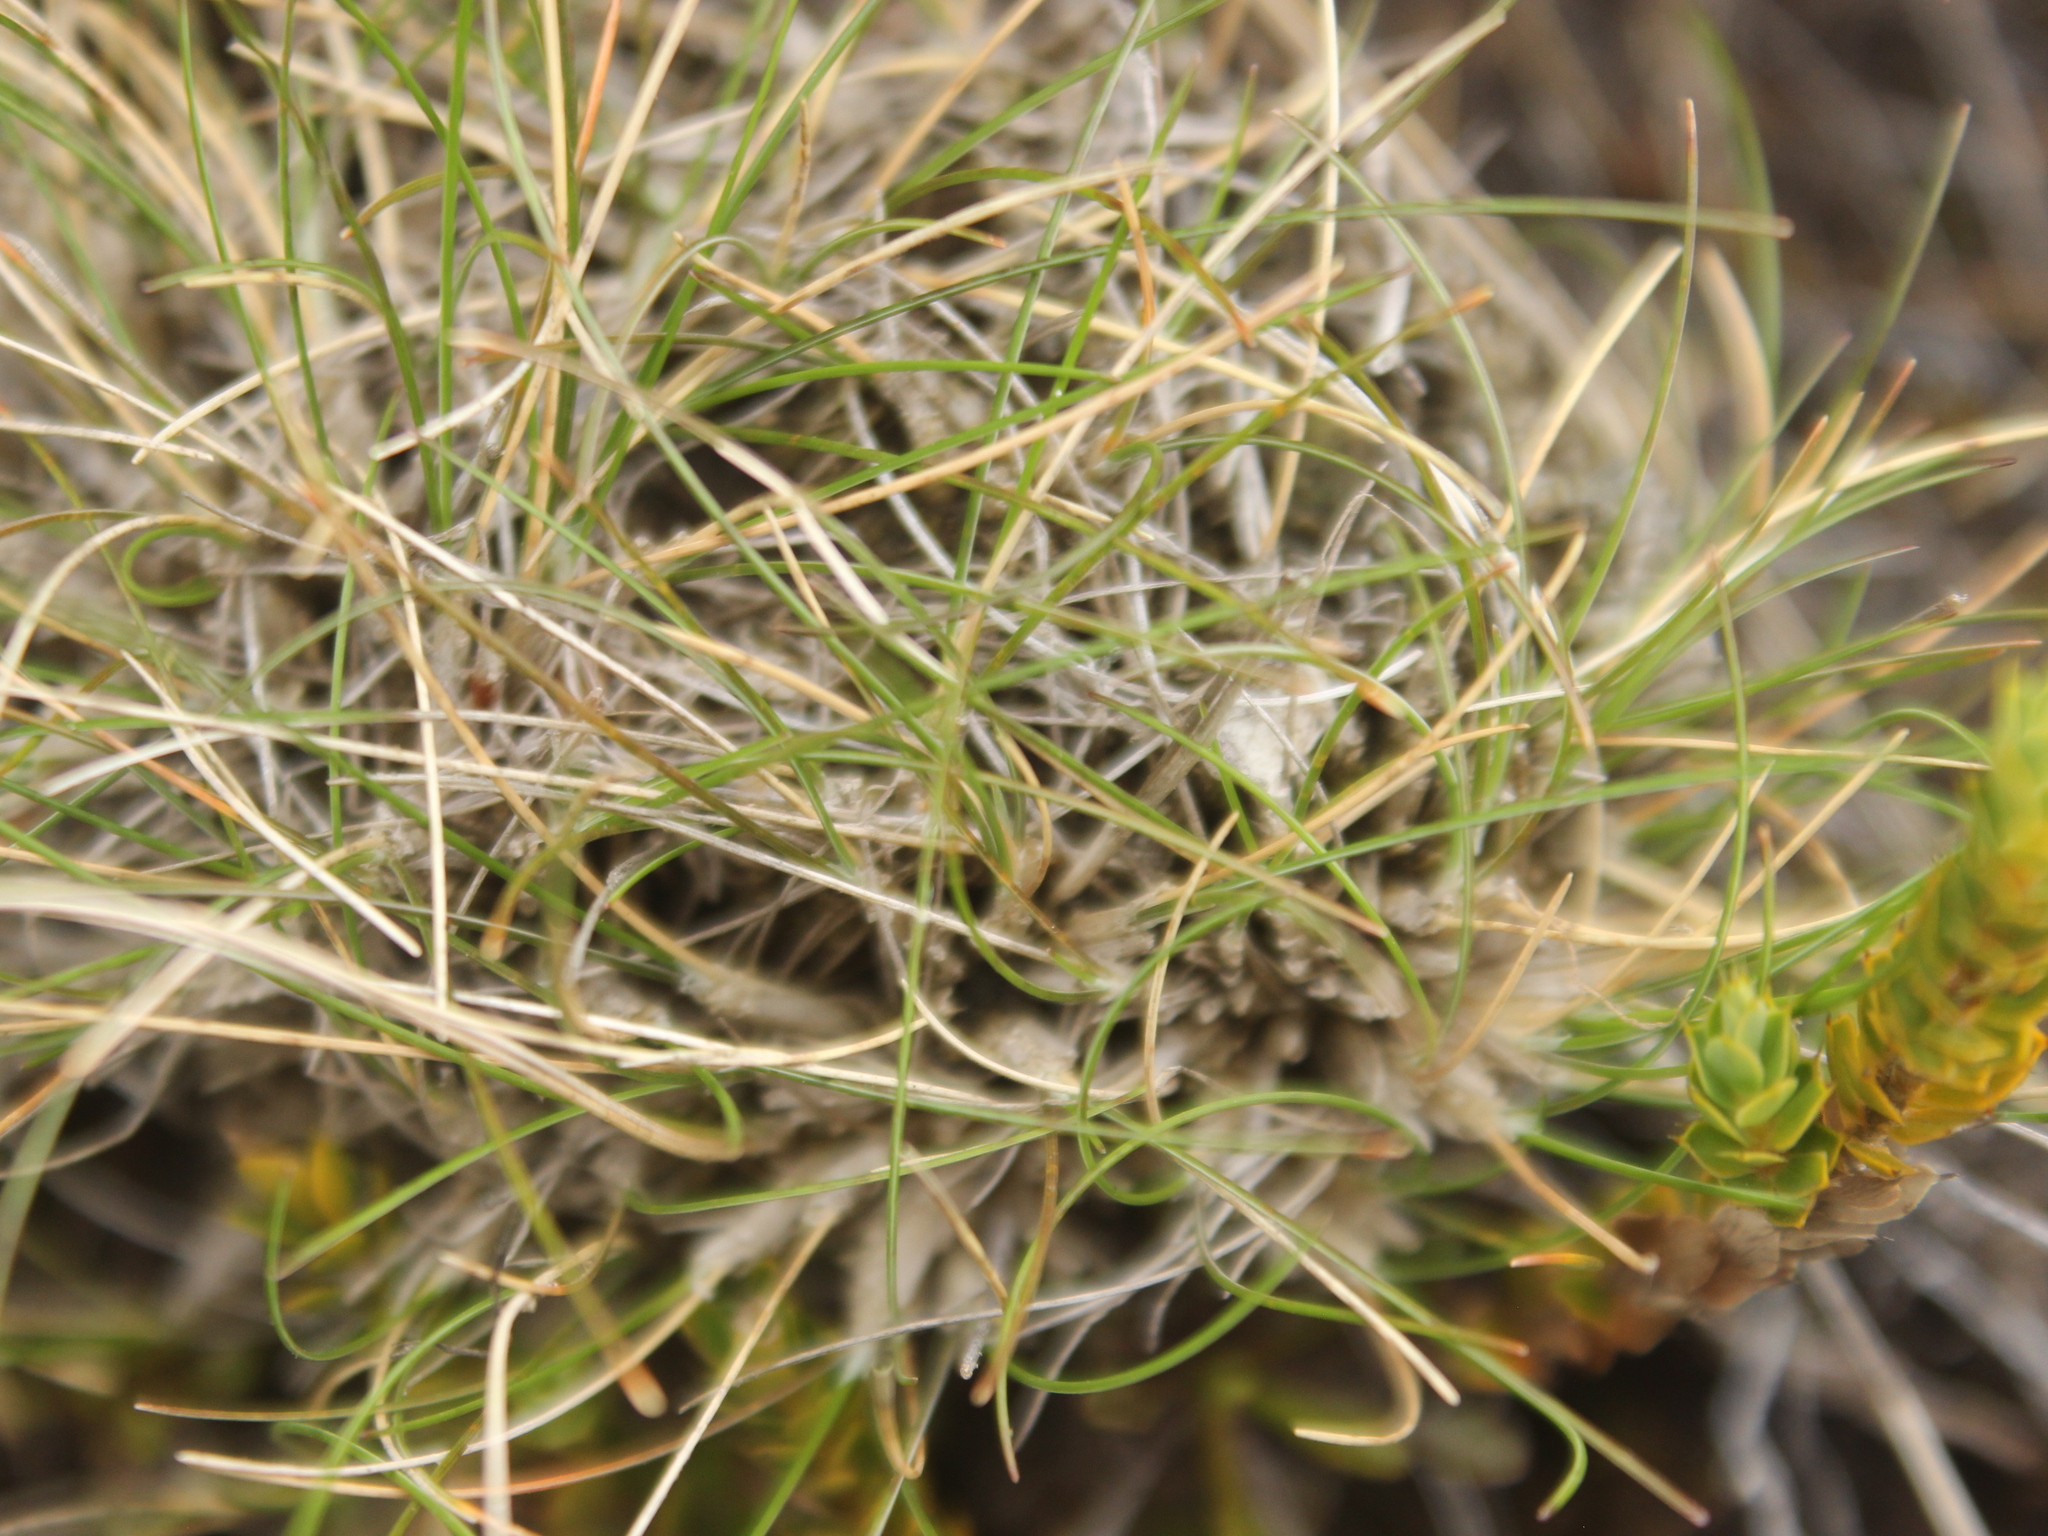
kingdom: Plantae
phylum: Tracheophyta
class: Liliopsida
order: Poales
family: Poaceae
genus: Poa
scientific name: Poa colensoi
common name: Blue tussock
